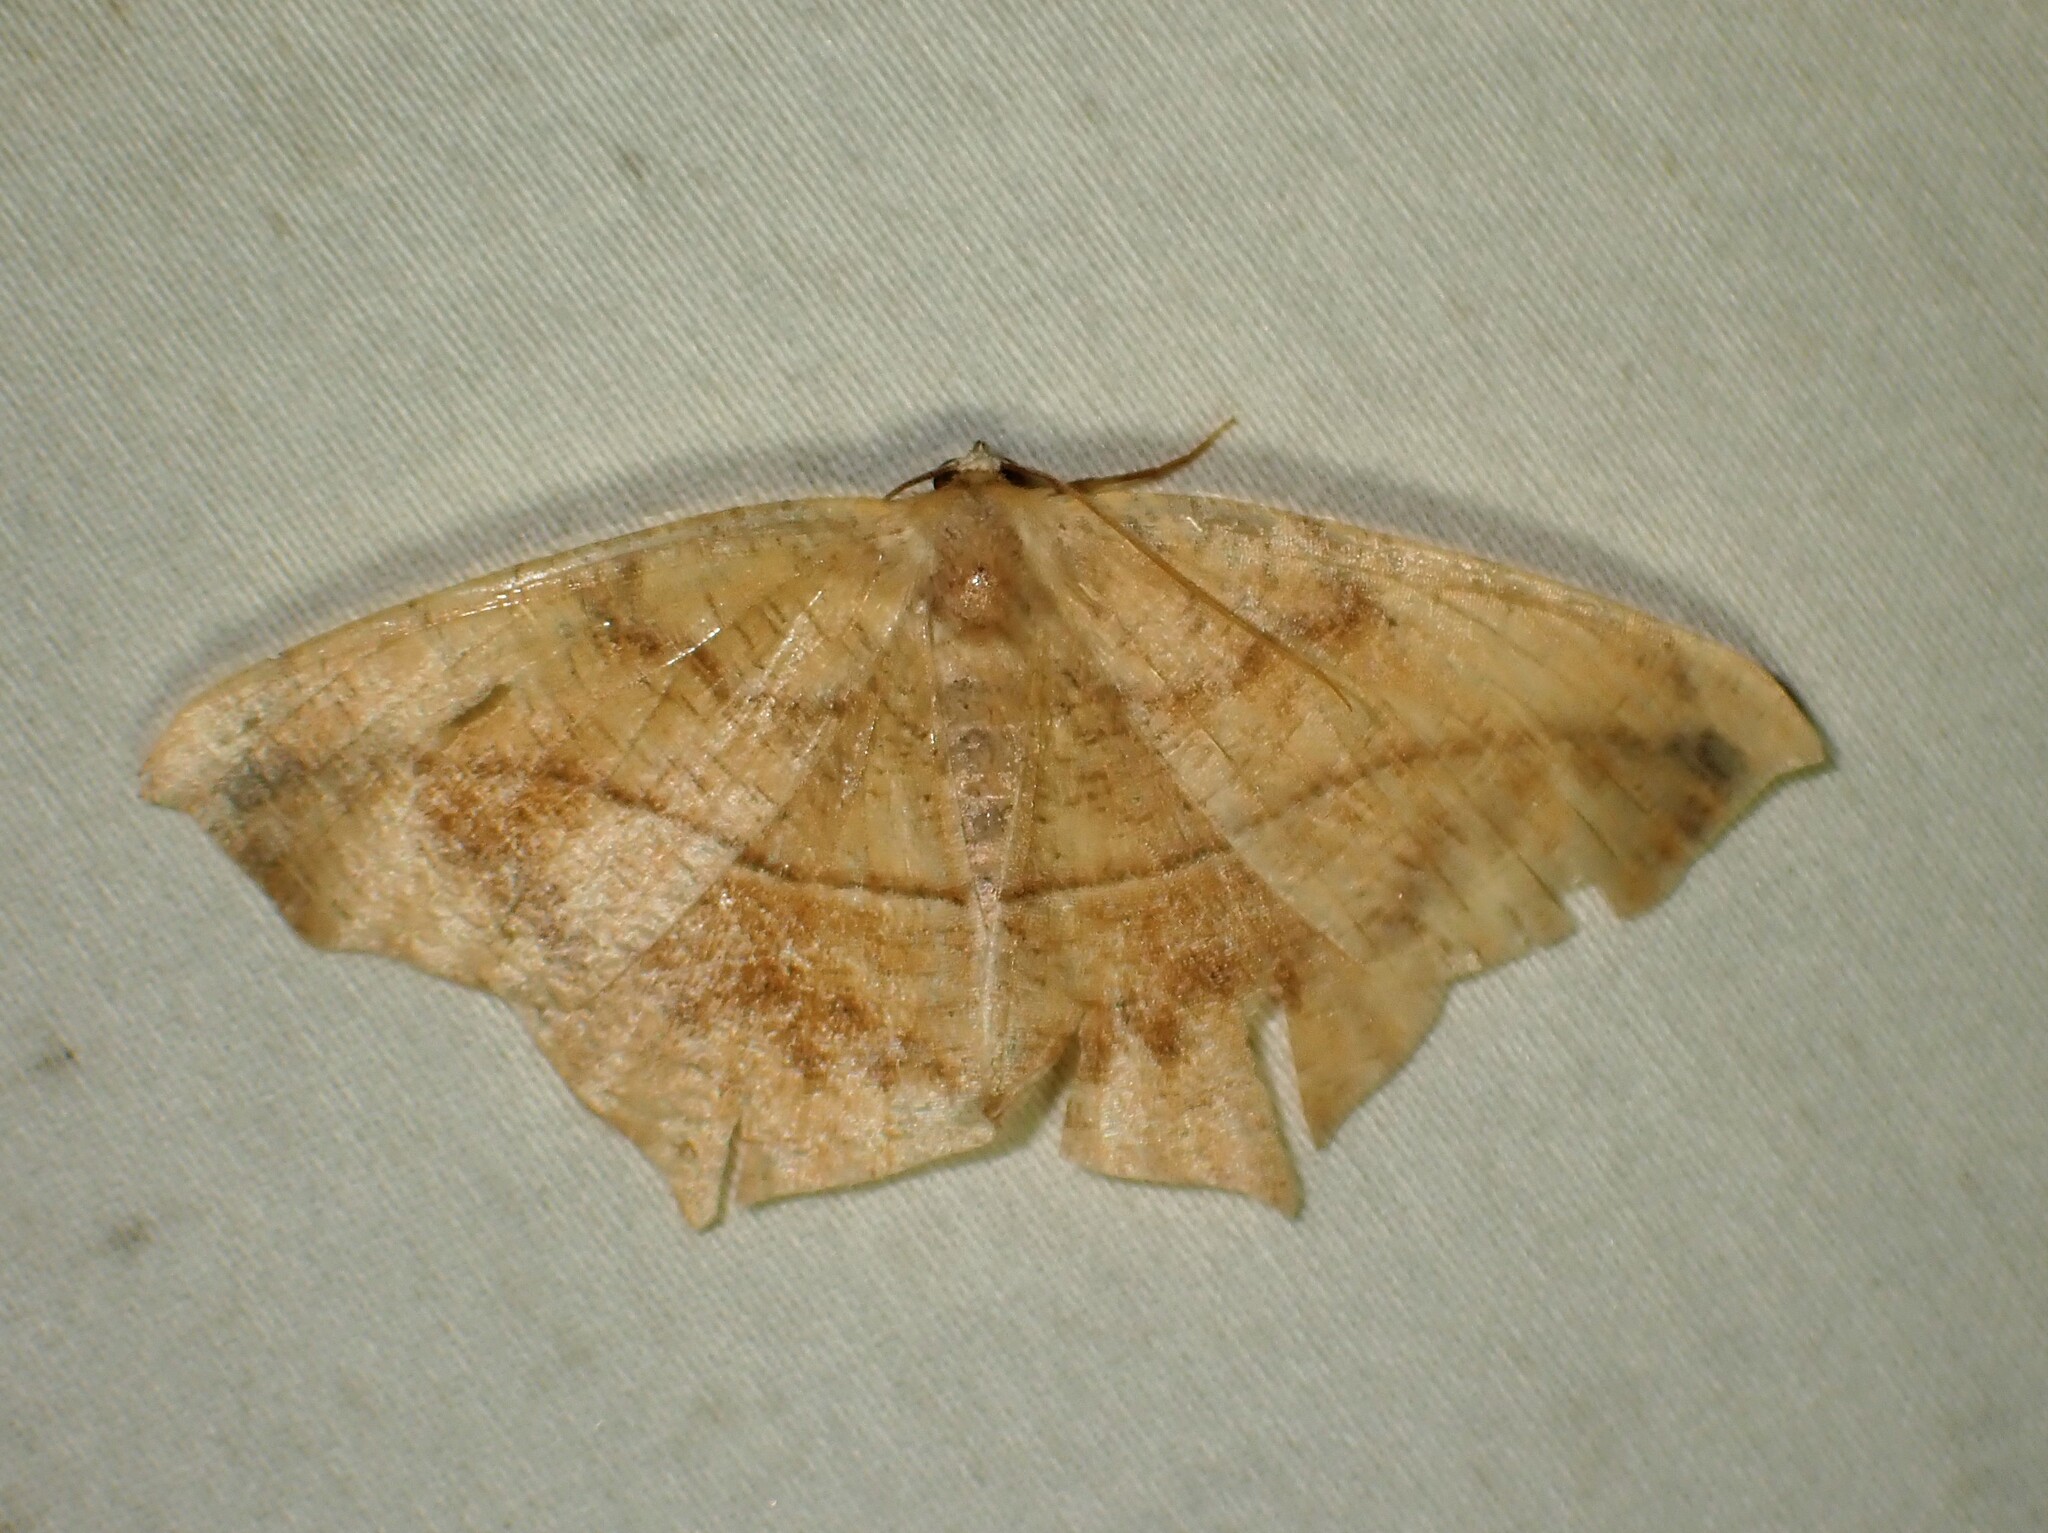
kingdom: Animalia
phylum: Arthropoda
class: Insecta
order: Lepidoptera
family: Geometridae
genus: Prochoerodes
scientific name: Prochoerodes lineola
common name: Large maple spanworm
